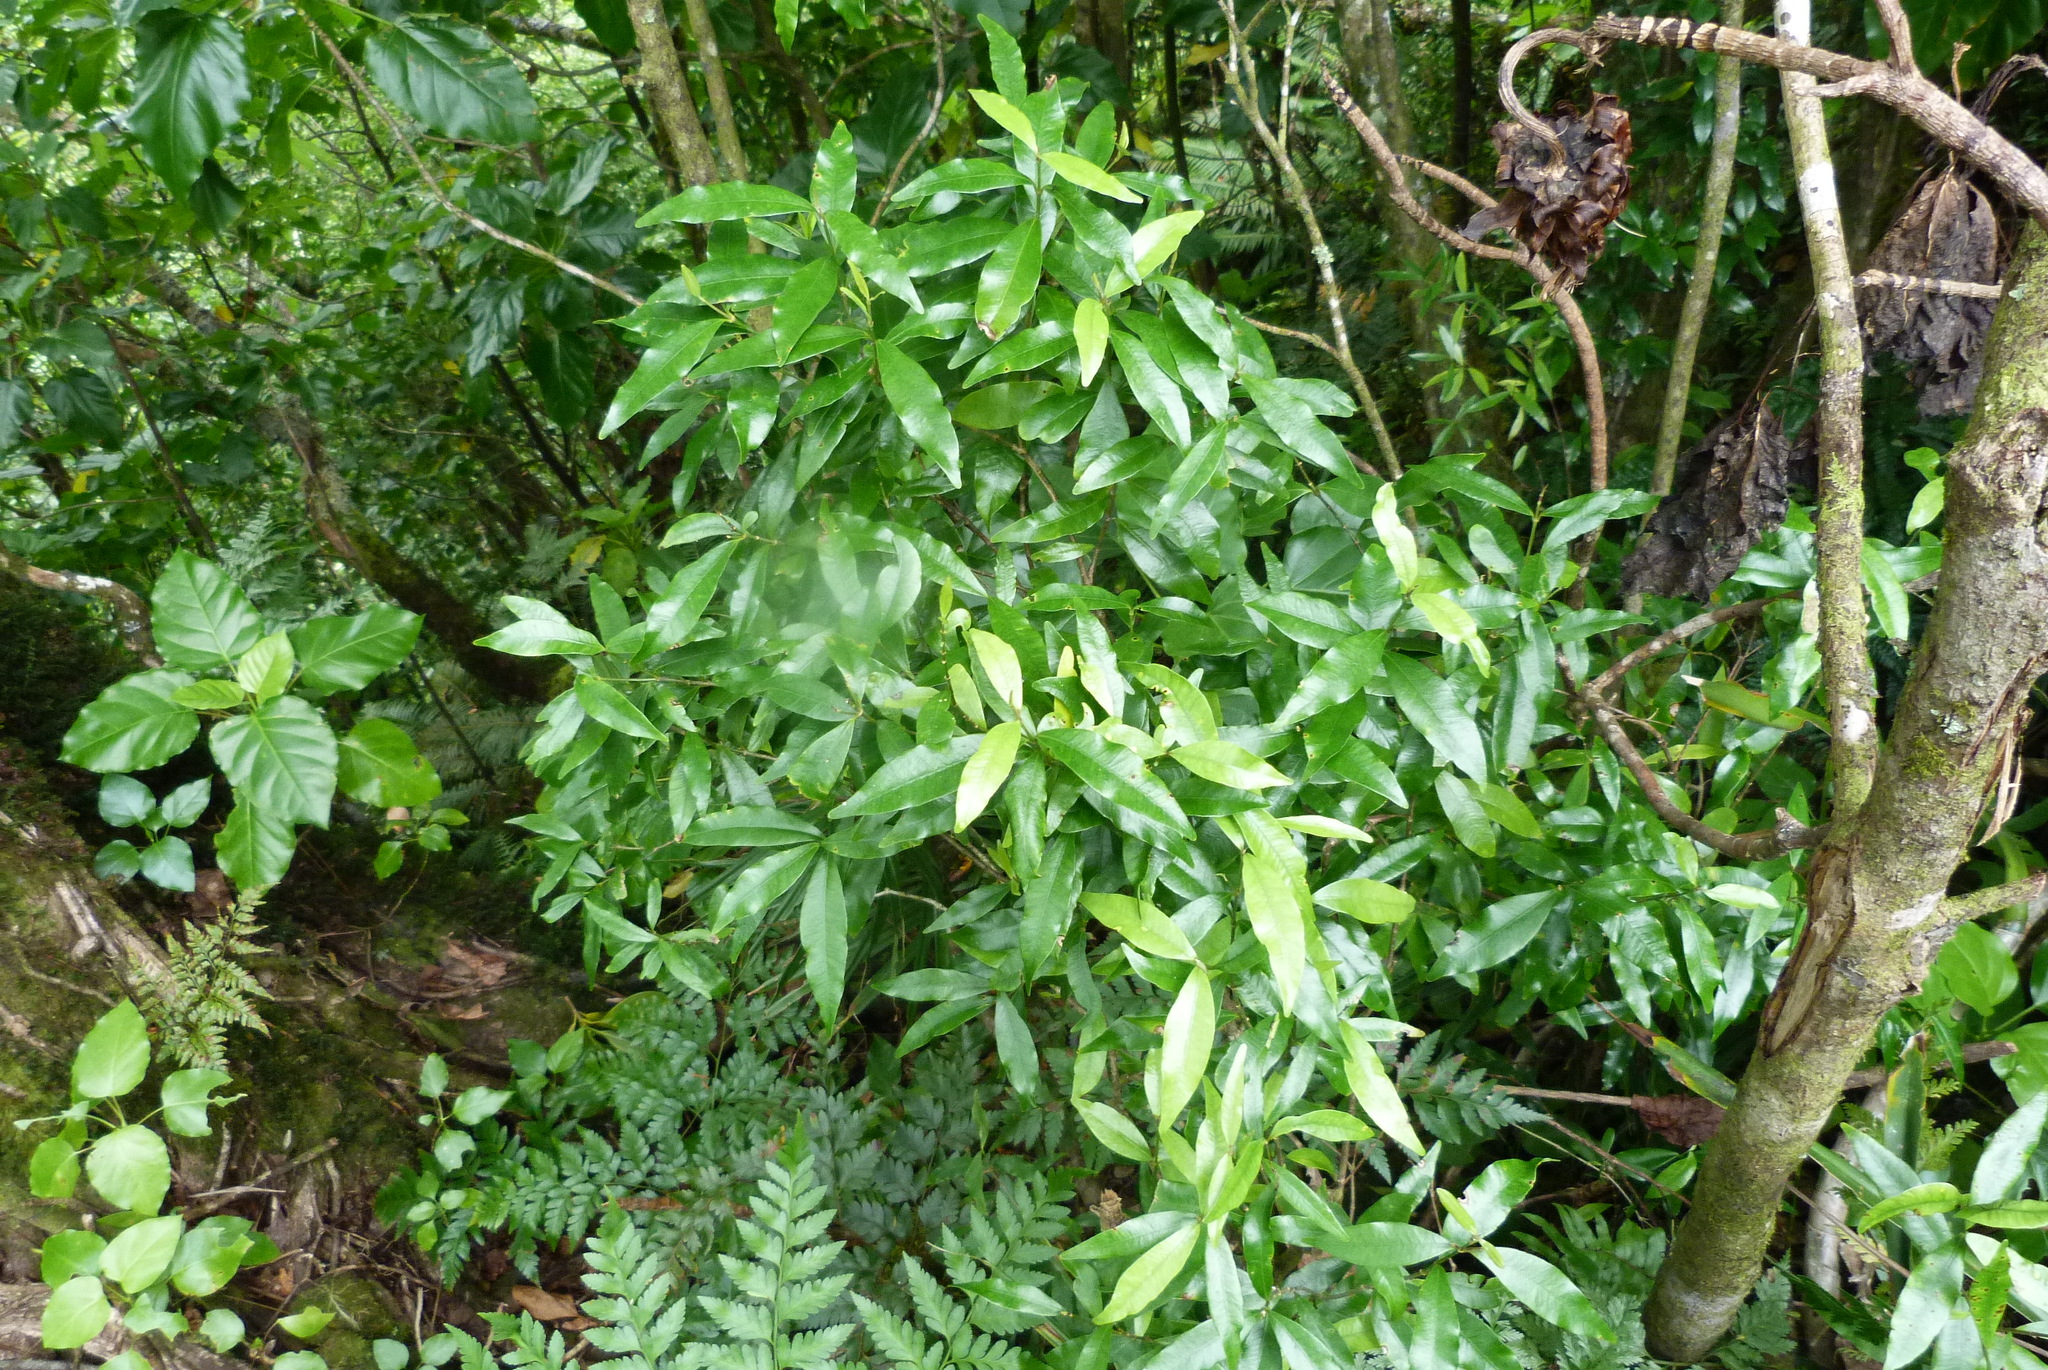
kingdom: Plantae
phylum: Tracheophyta
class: Magnoliopsida
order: Gentianales
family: Apocynaceae
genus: Alyxia
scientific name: Alyxia stellata
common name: Maile
